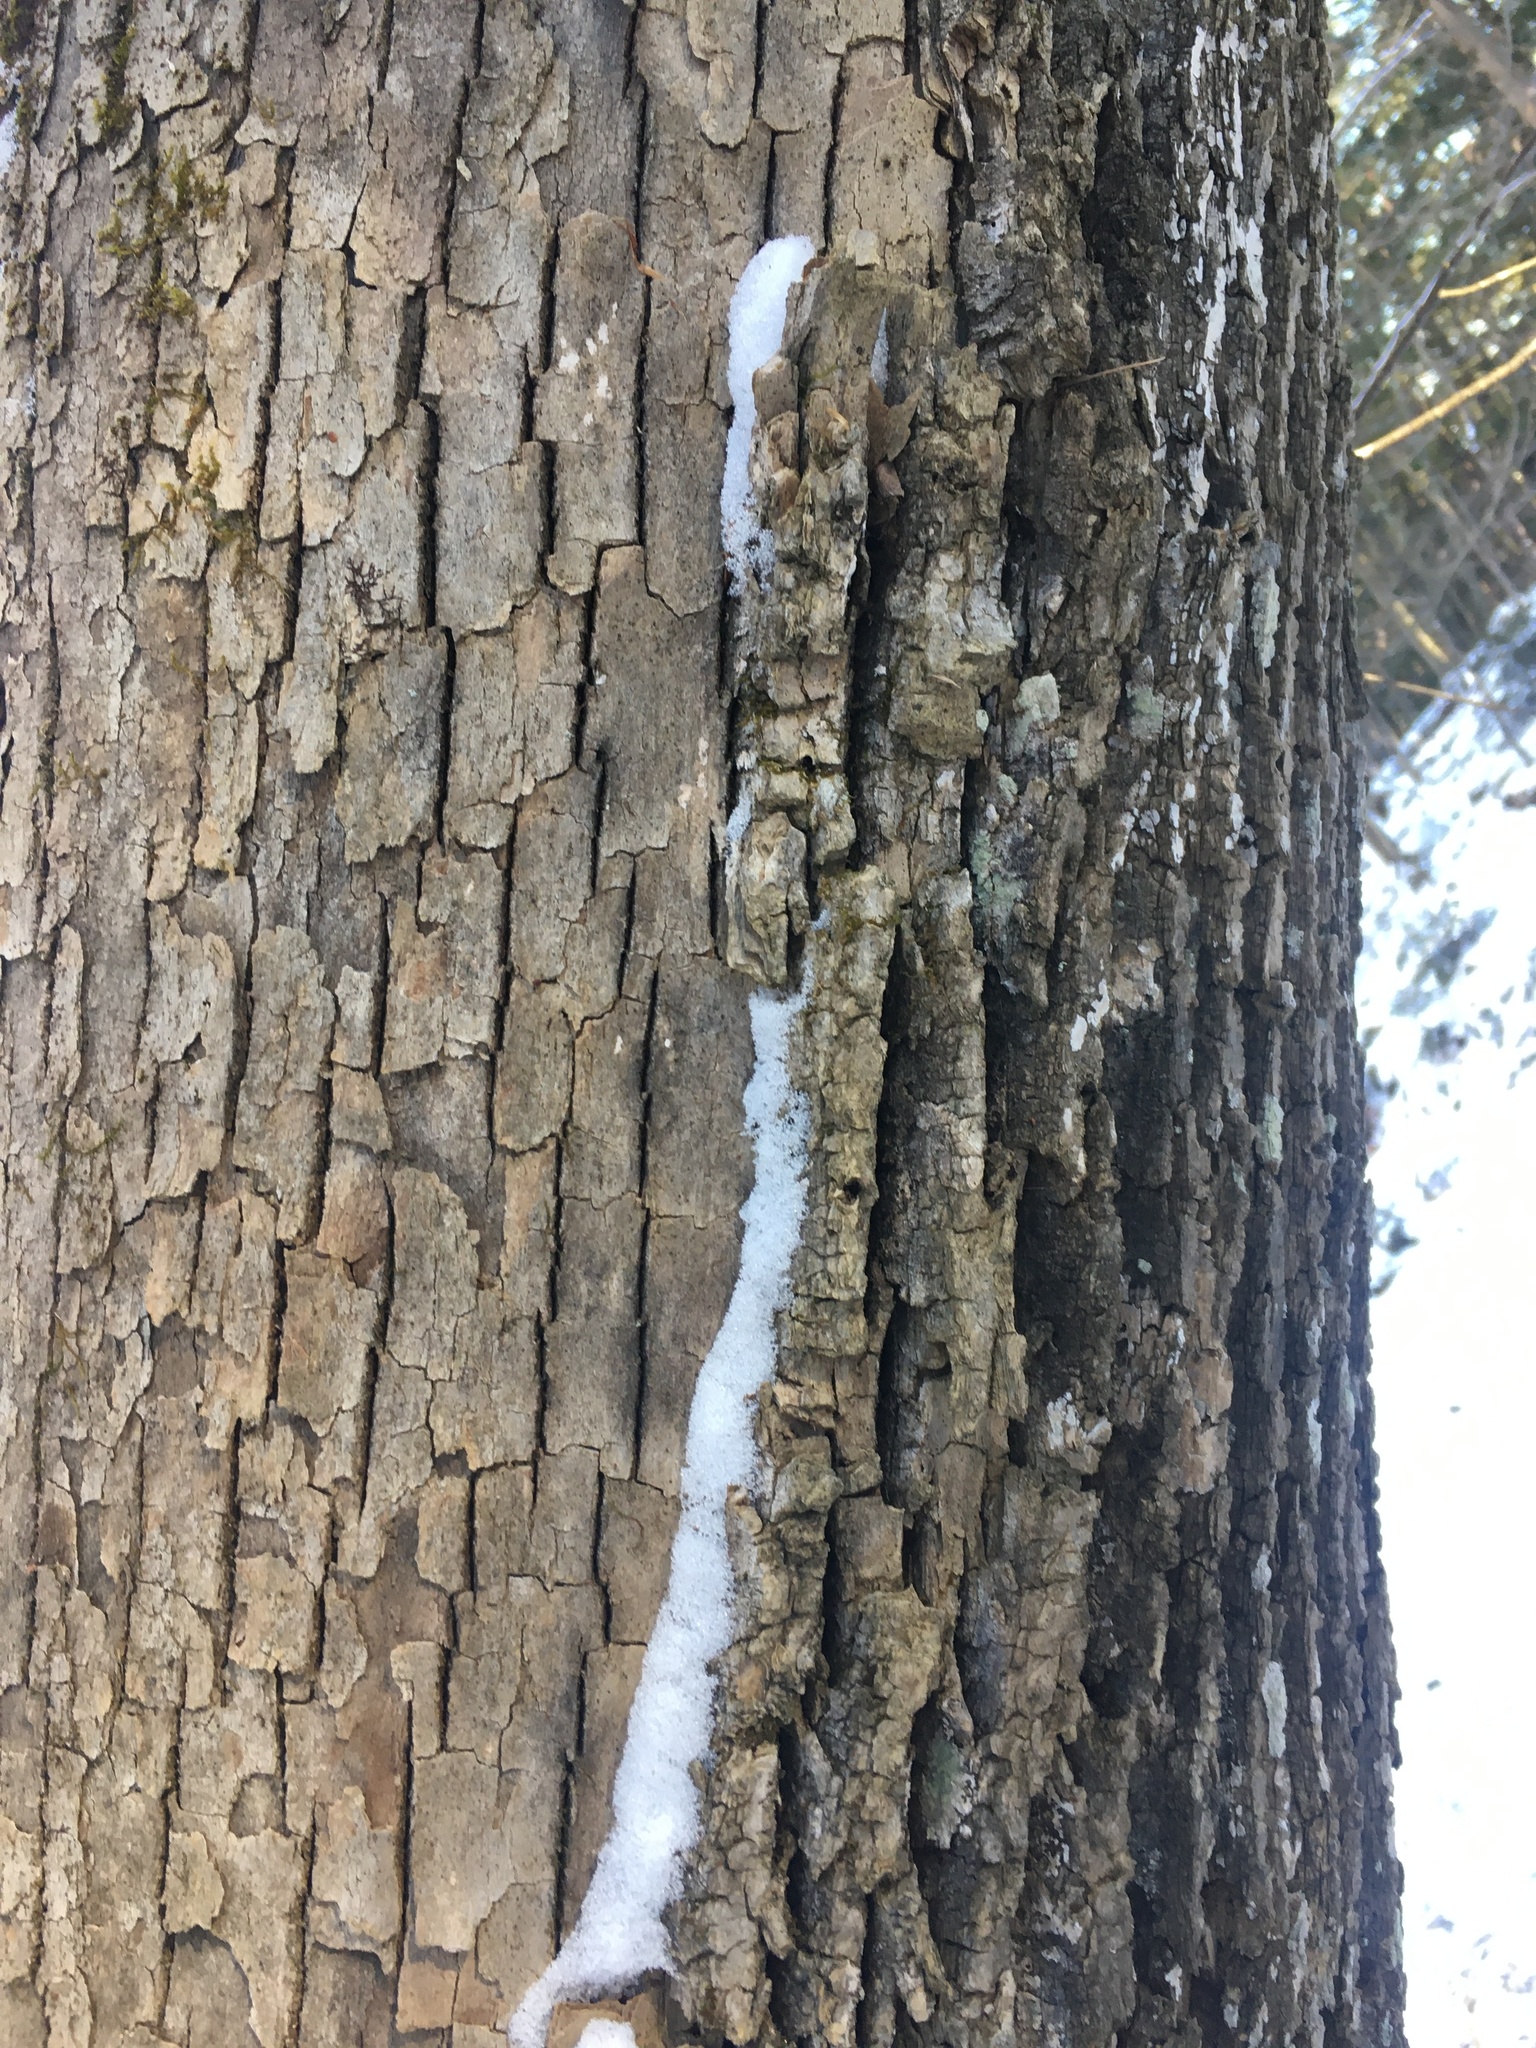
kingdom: Plantae
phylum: Tracheophyta
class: Magnoliopsida
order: Lamiales
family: Oleaceae
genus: Fraxinus
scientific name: Fraxinus americana
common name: White ash
